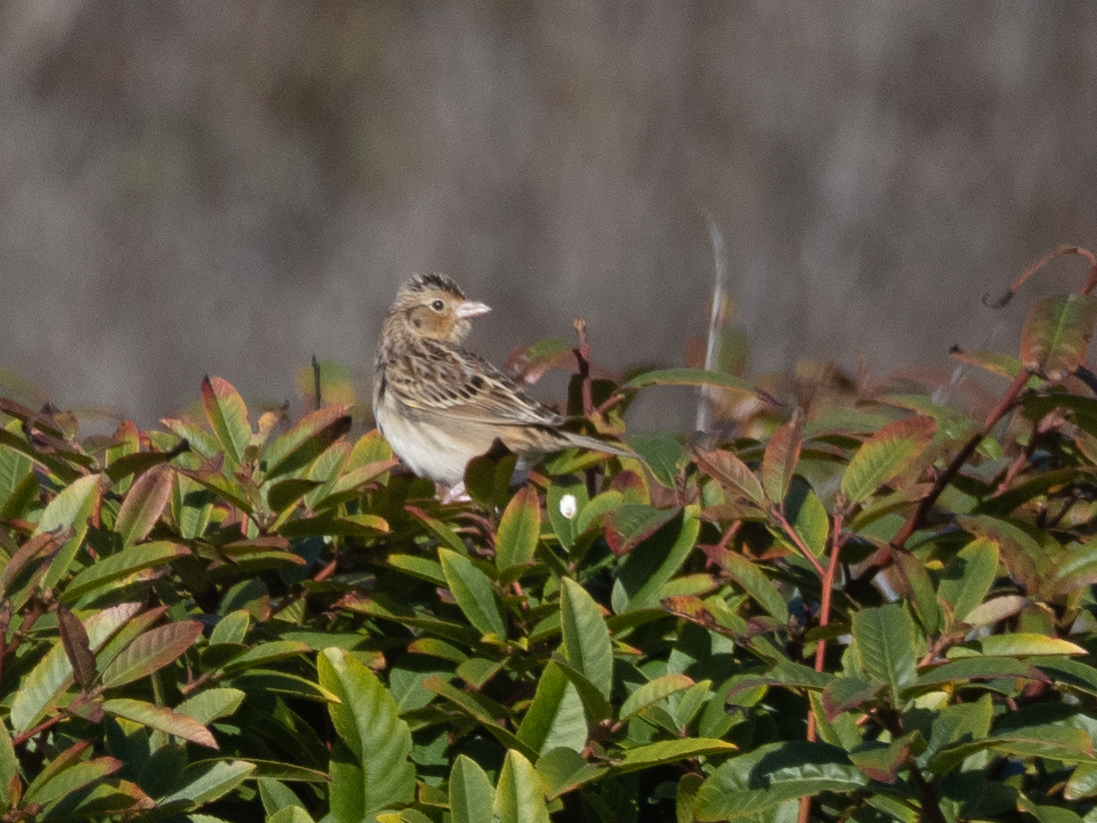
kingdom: Animalia
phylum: Chordata
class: Aves
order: Passeriformes
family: Passerellidae
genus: Ammodramus
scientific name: Ammodramus savannarum
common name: Grasshopper sparrow
